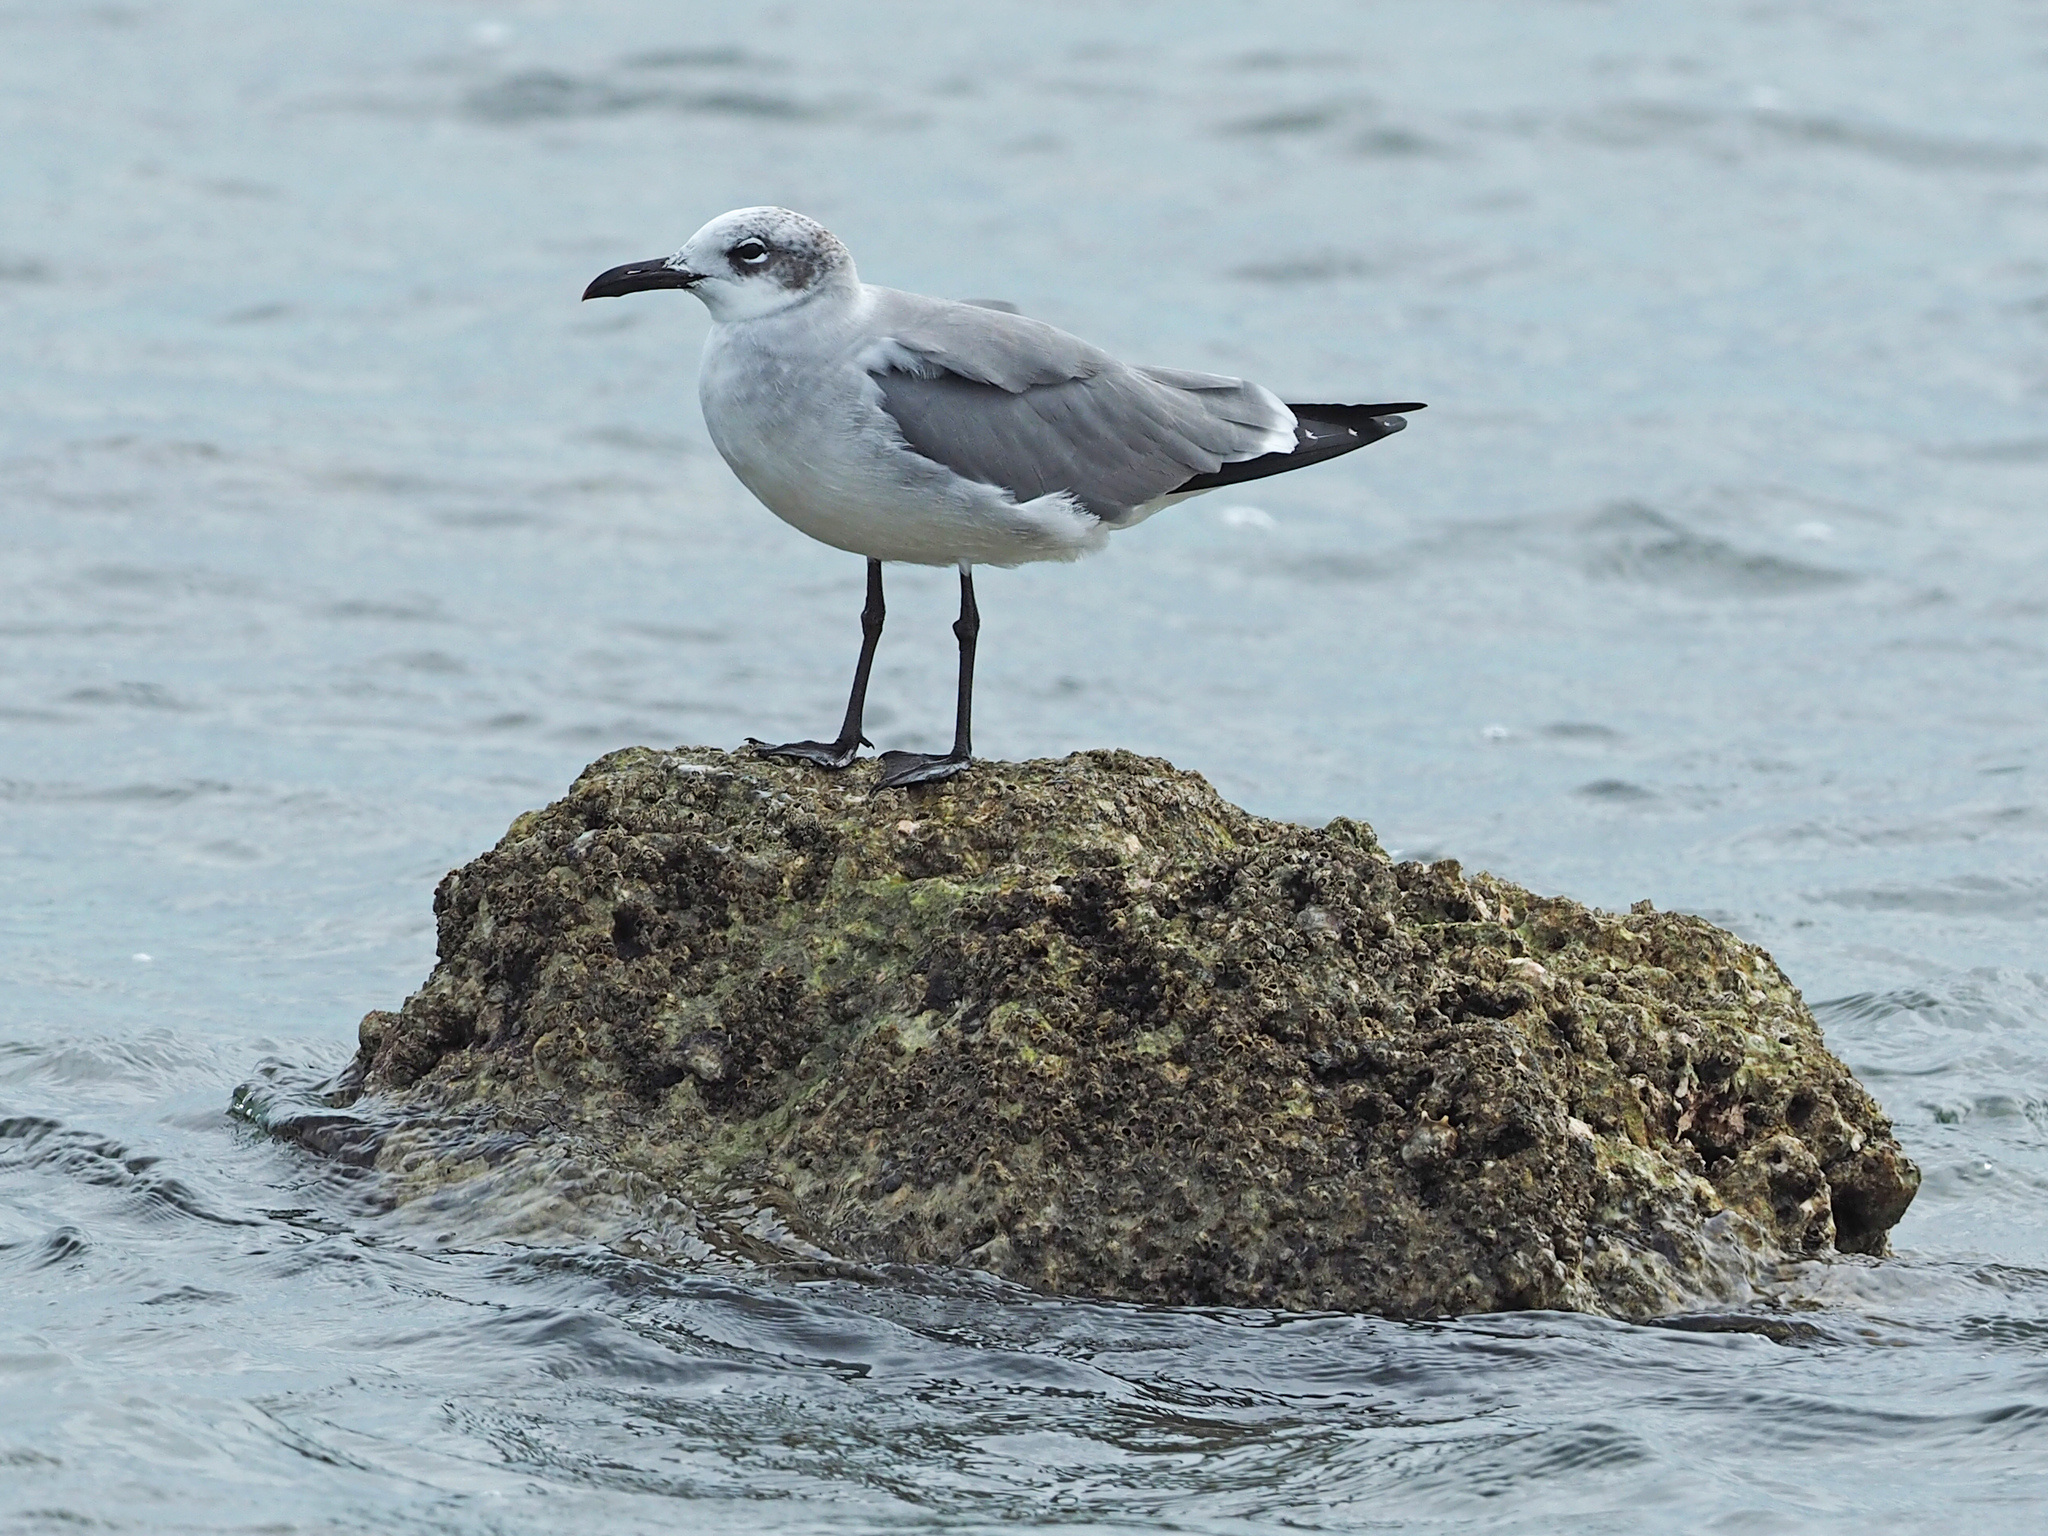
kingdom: Animalia
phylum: Chordata
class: Aves
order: Charadriiformes
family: Laridae
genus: Leucophaeus
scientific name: Leucophaeus atricilla
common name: Laughing gull
